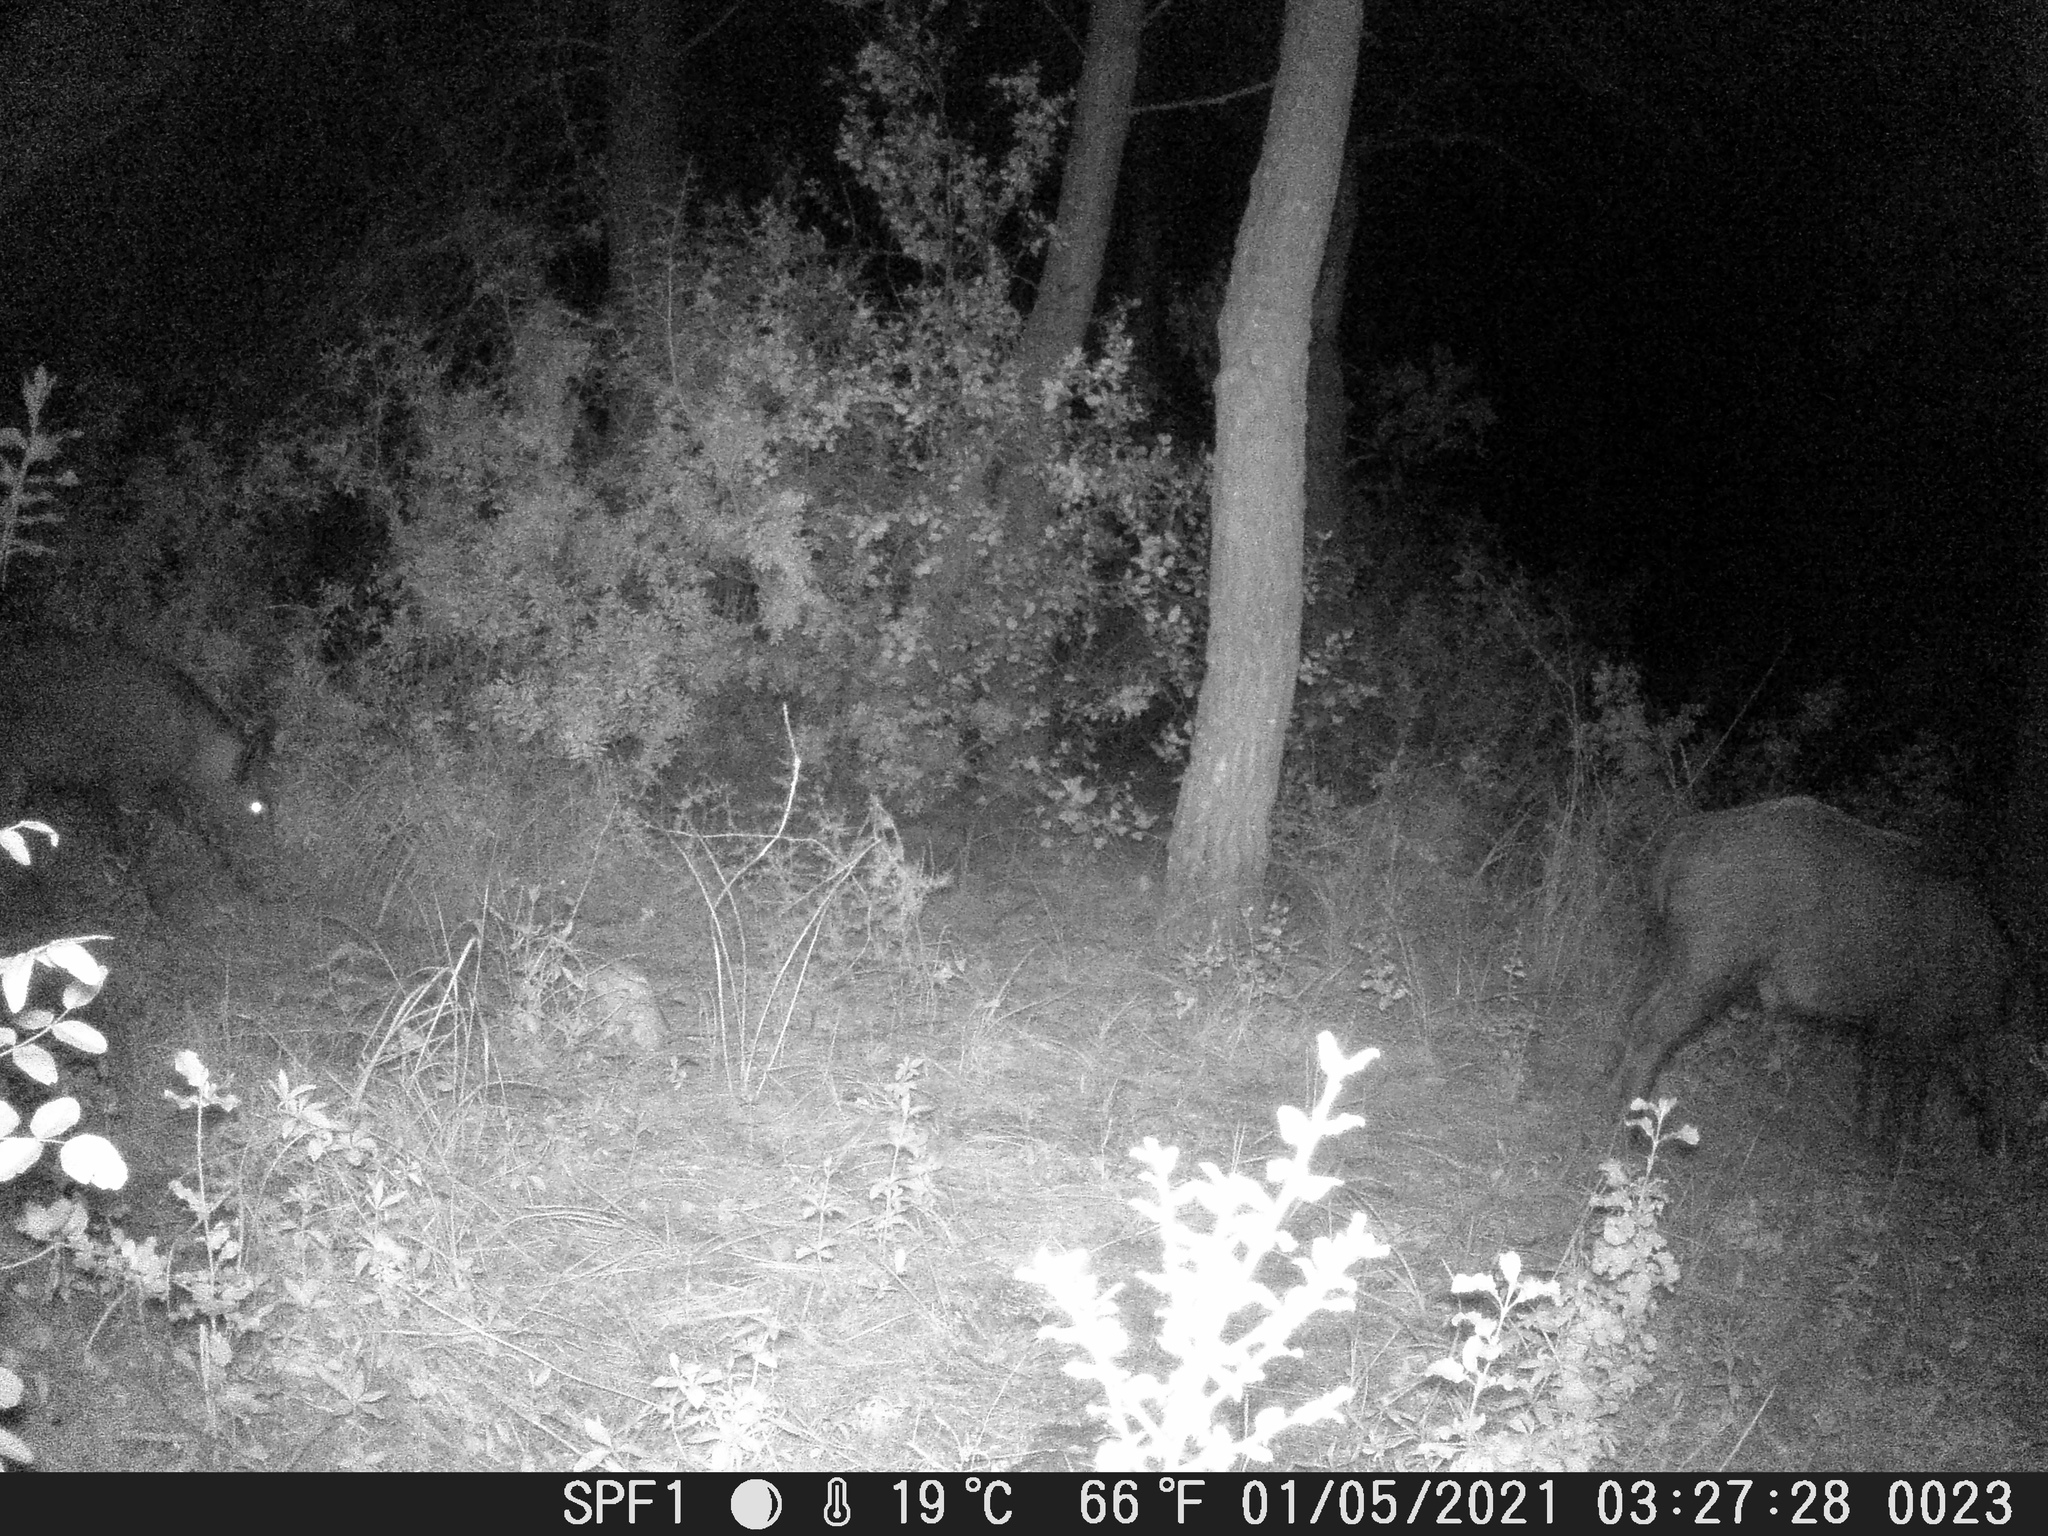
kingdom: Animalia
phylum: Chordata
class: Mammalia
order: Artiodactyla
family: Suidae
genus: Sus
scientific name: Sus scrofa
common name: Wild boar
